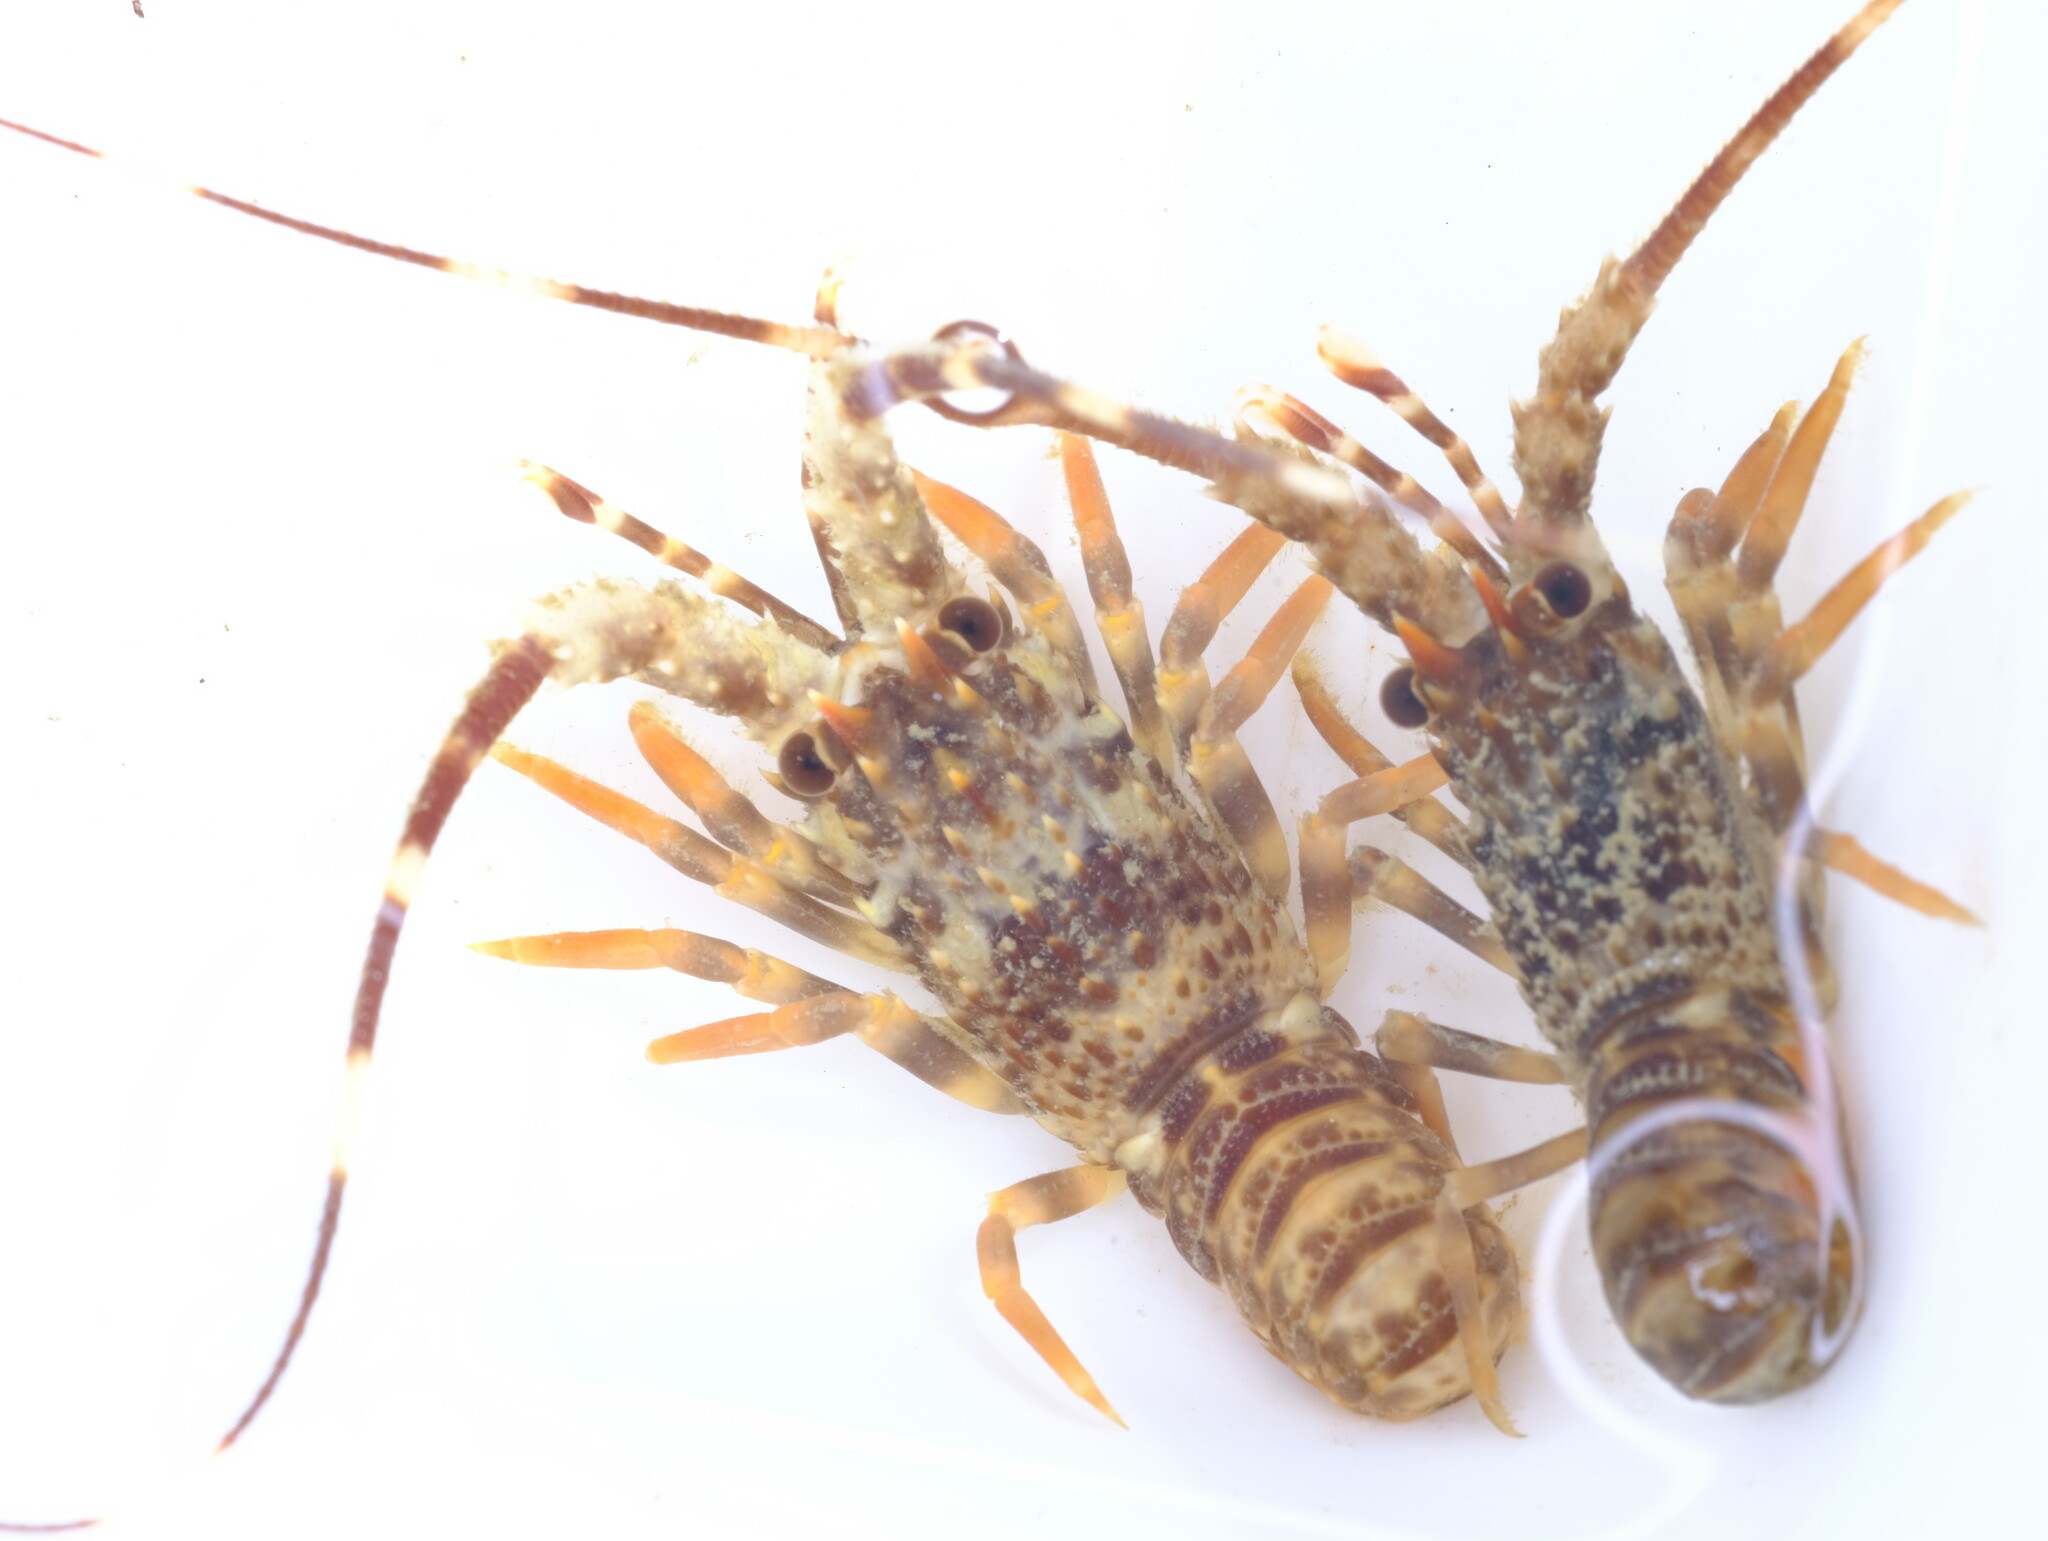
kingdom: Animalia
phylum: Arthropoda
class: Malacostraca
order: Decapoda
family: Palinuridae
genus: Jasus
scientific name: Jasus edwardsii
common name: Red rock lobster
